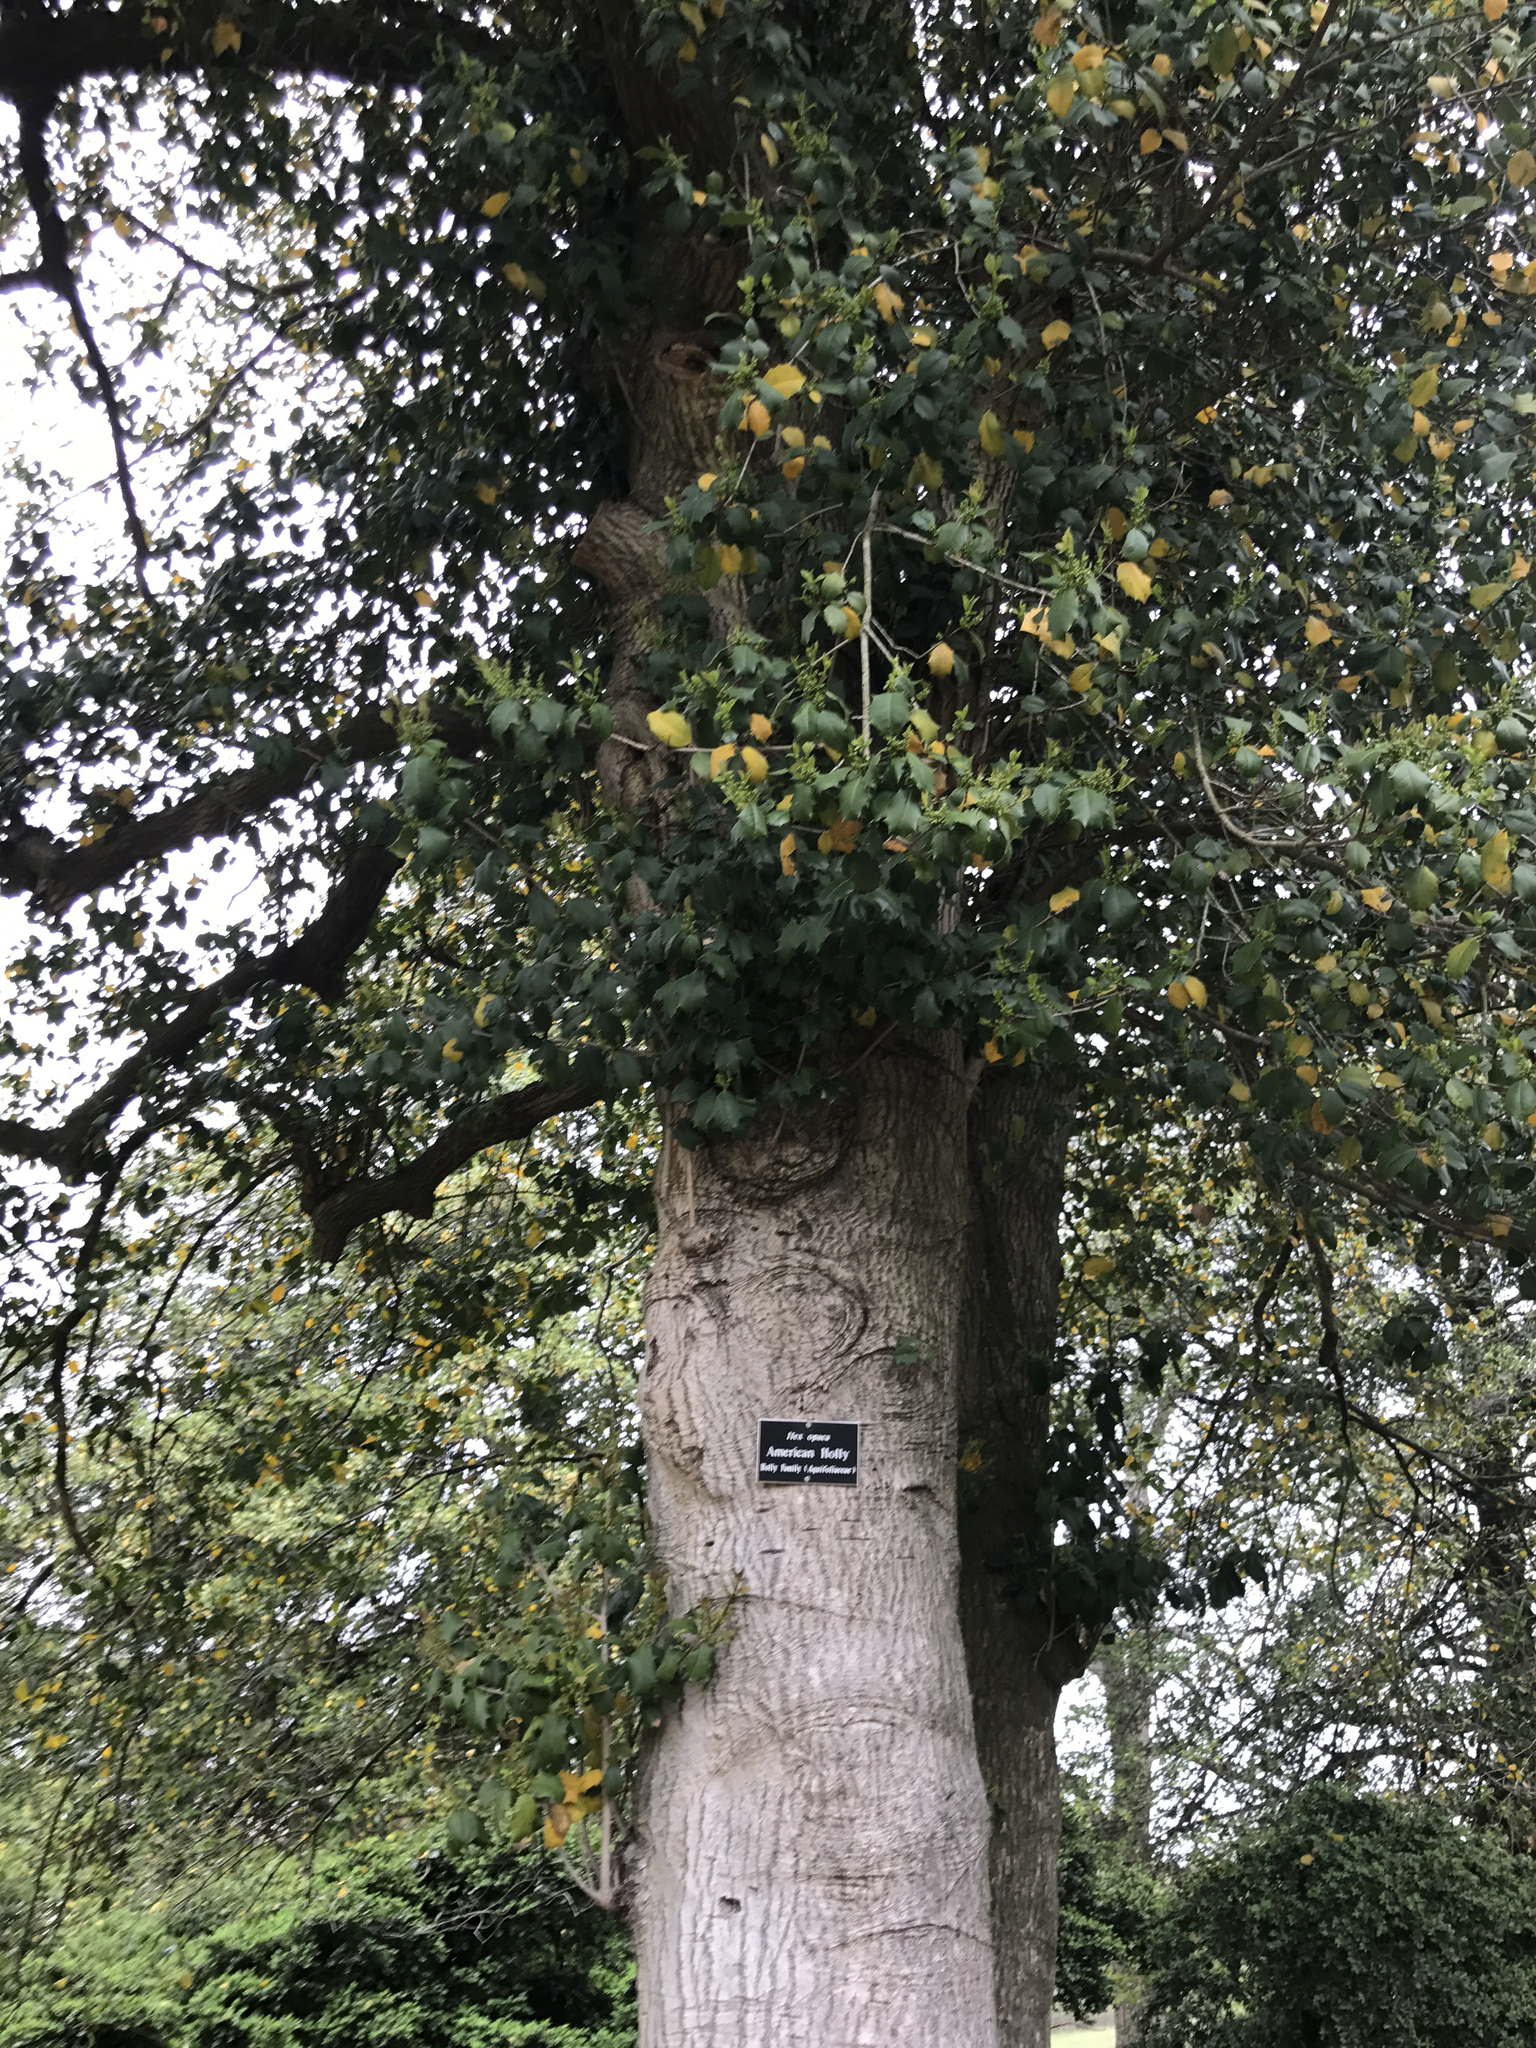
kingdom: Plantae
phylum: Tracheophyta
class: Magnoliopsida
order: Aquifoliales
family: Aquifoliaceae
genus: Ilex
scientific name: Ilex opaca
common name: American holly
